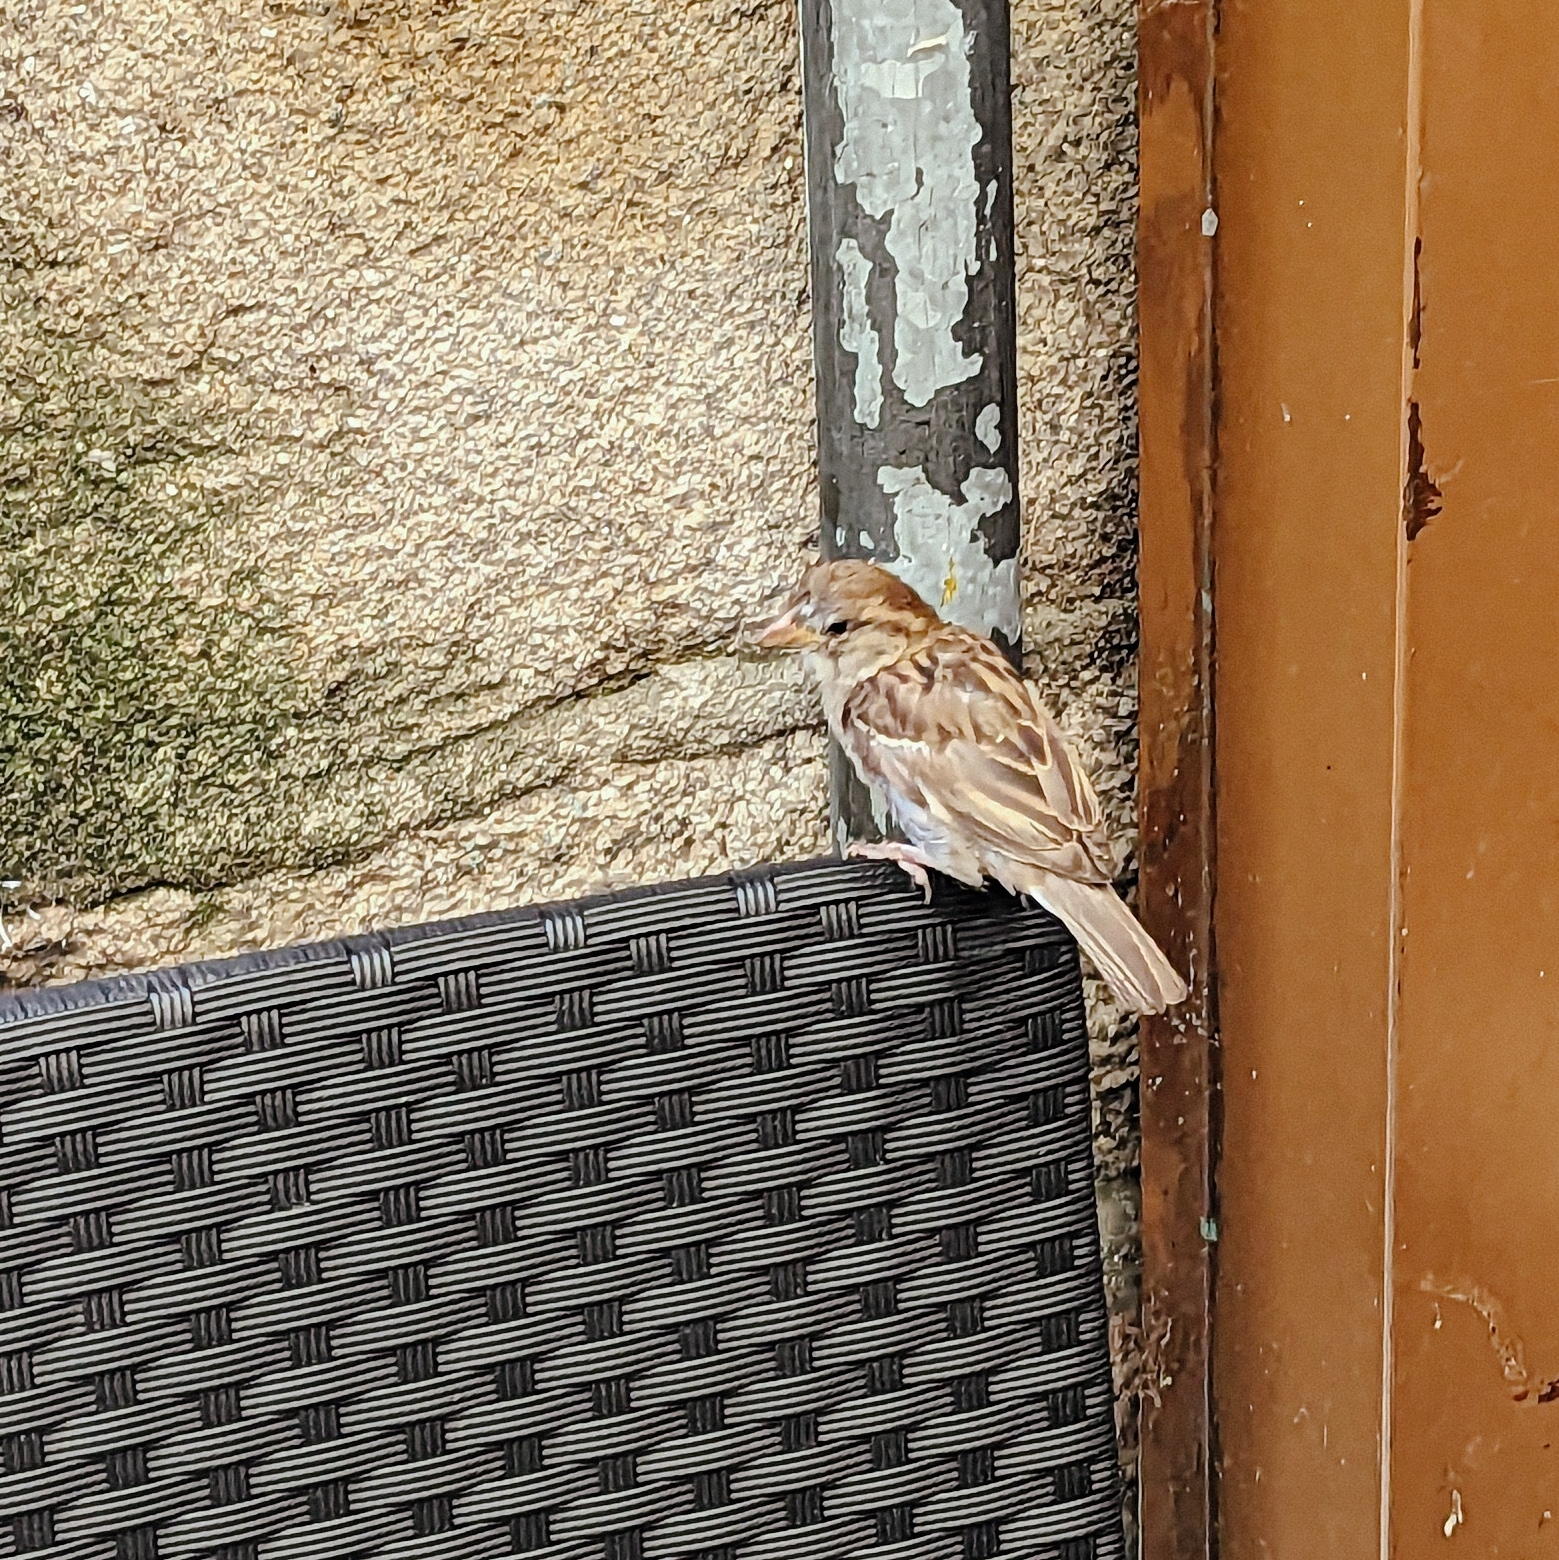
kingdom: Animalia
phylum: Chordata
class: Aves
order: Passeriformes
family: Passeridae
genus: Passer
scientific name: Passer domesticus
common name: House sparrow
